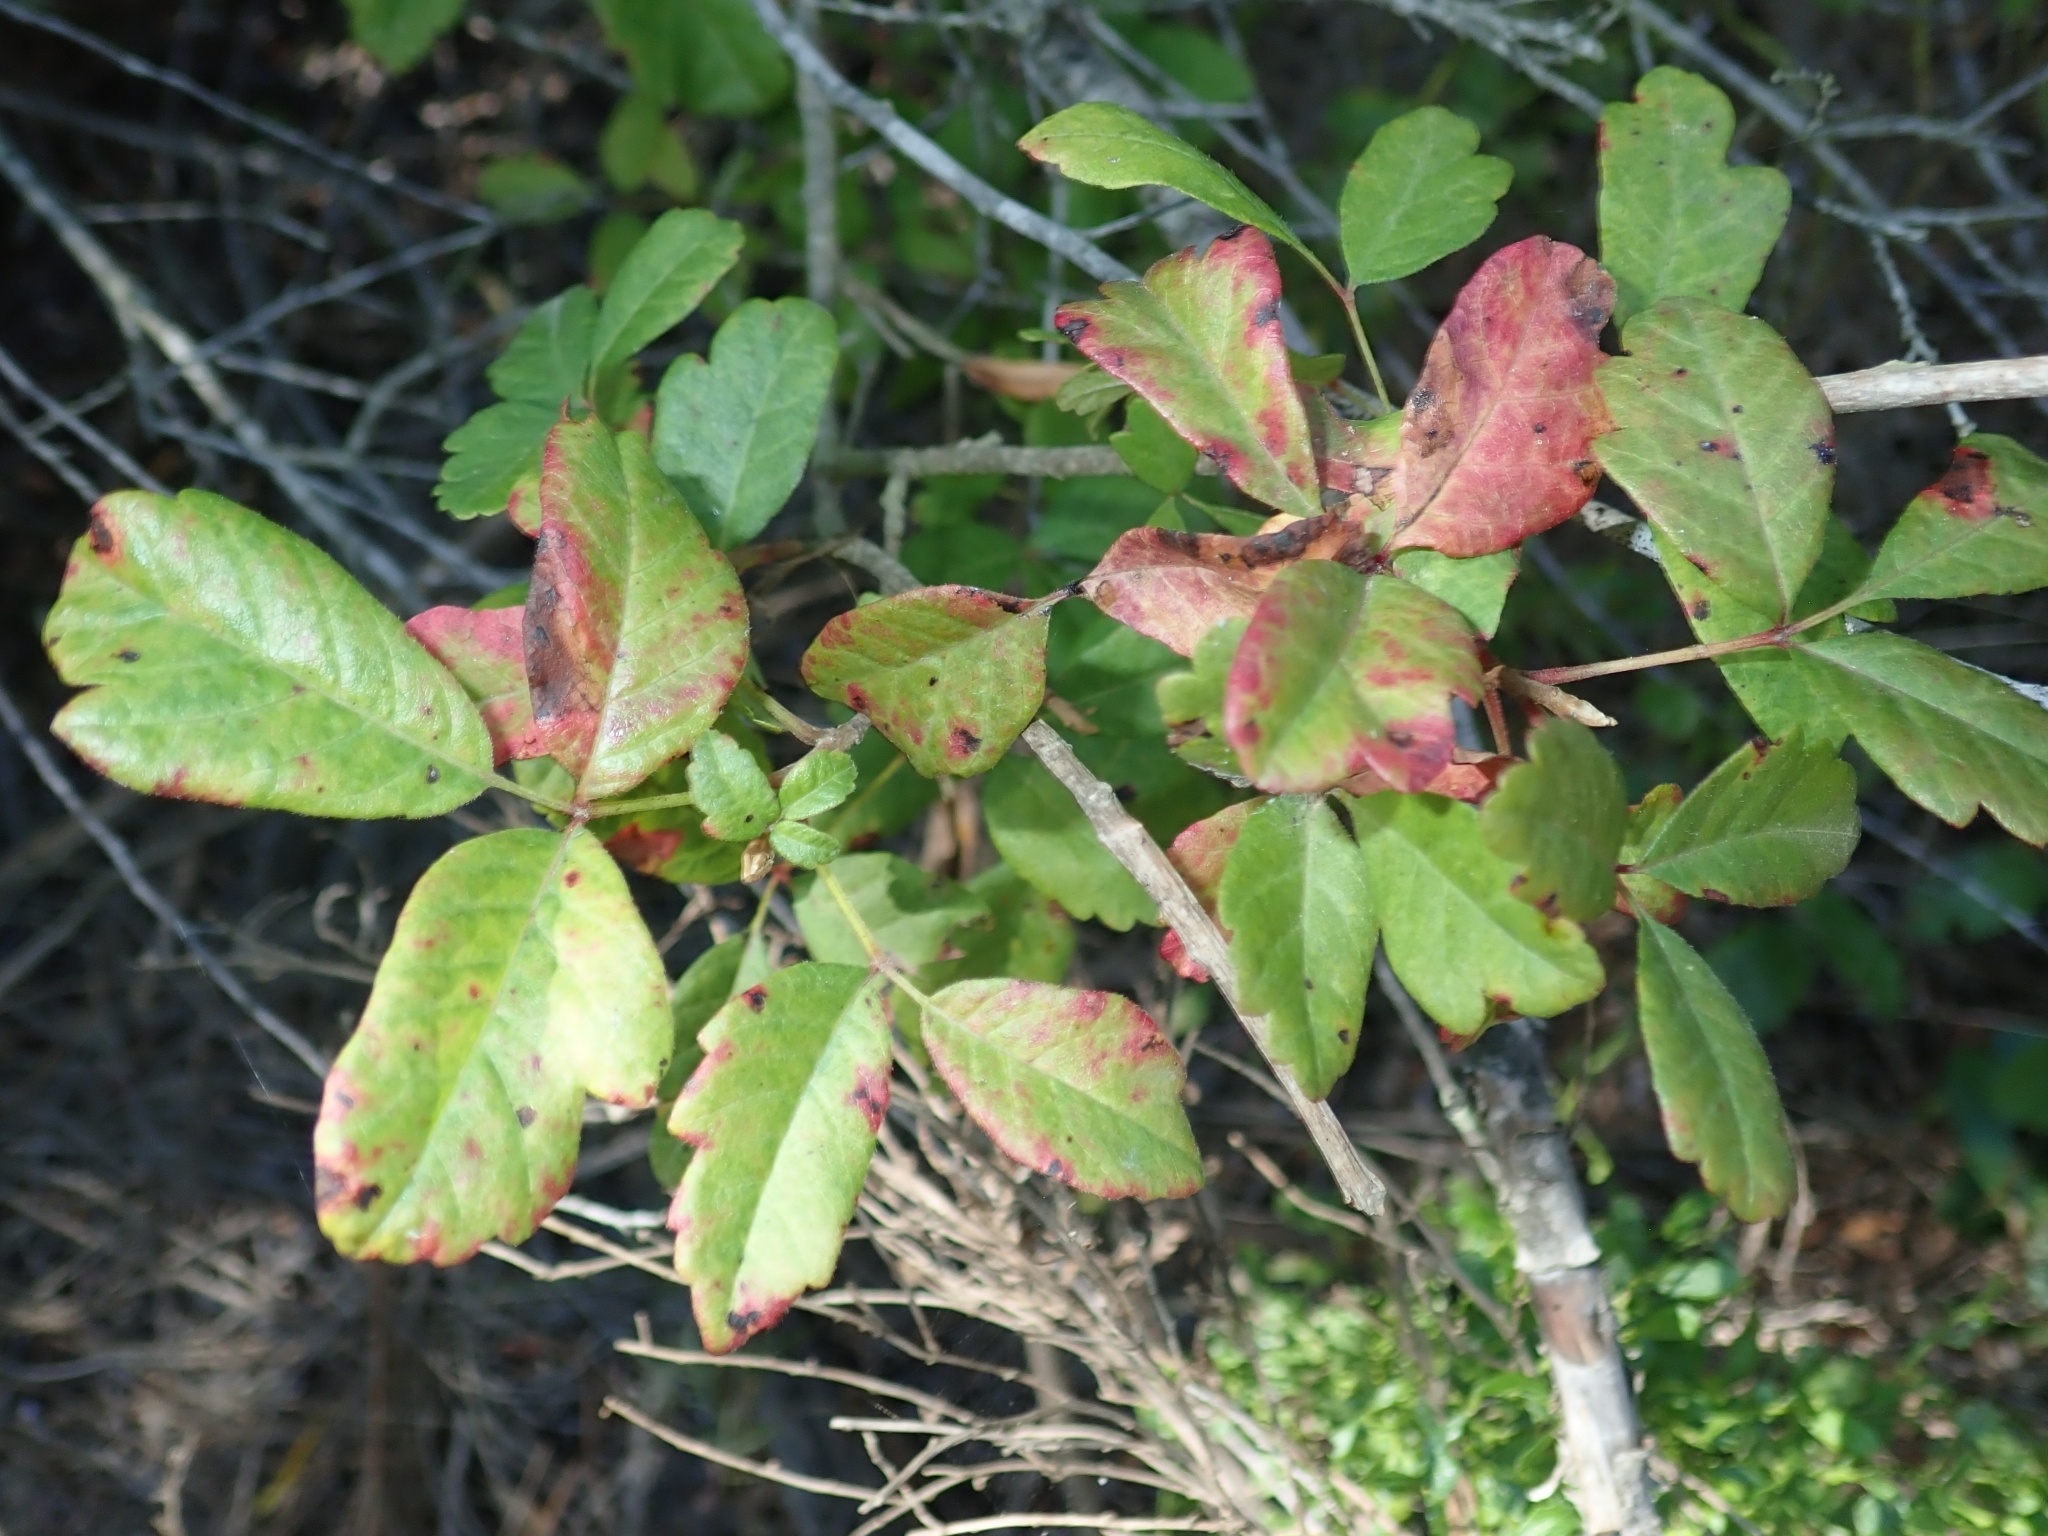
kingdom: Plantae
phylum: Tracheophyta
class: Magnoliopsida
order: Sapindales
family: Anacardiaceae
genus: Toxicodendron
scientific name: Toxicodendron diversilobum
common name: Pacific poison-oak
